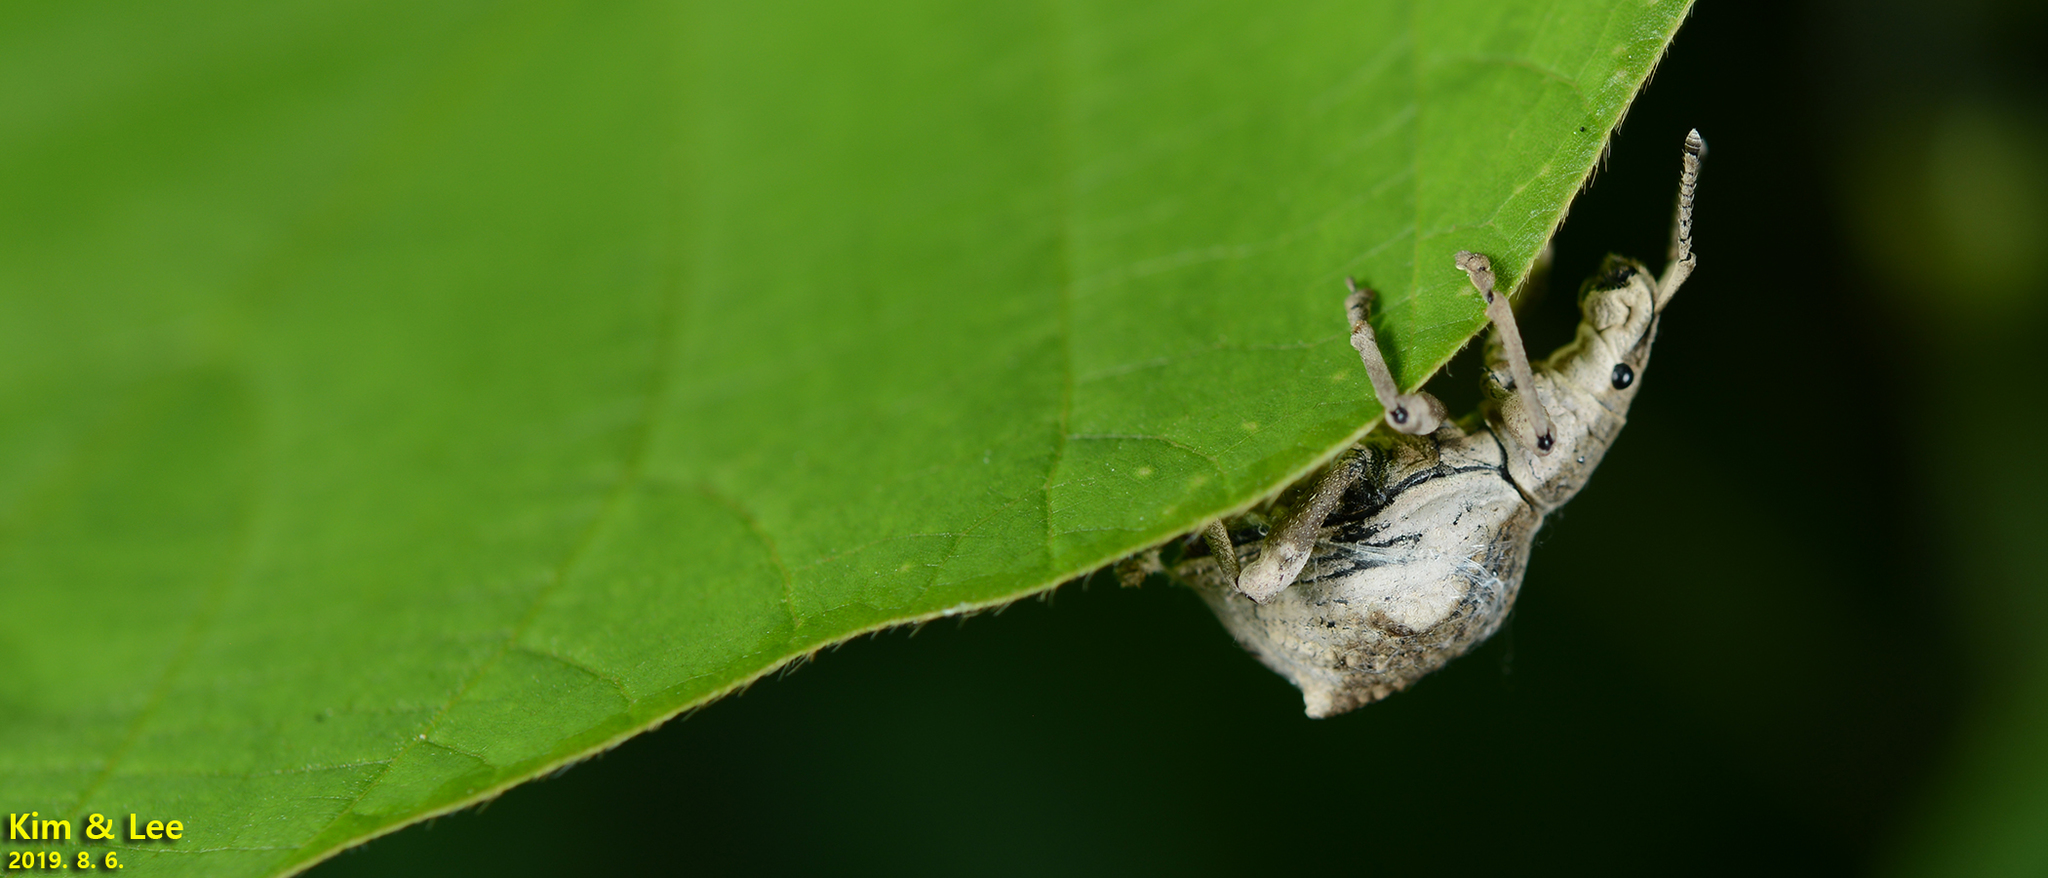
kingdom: Animalia
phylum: Arthropoda
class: Insecta
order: Coleoptera
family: Curculionidae
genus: Episomus
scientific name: Episomus turritus
